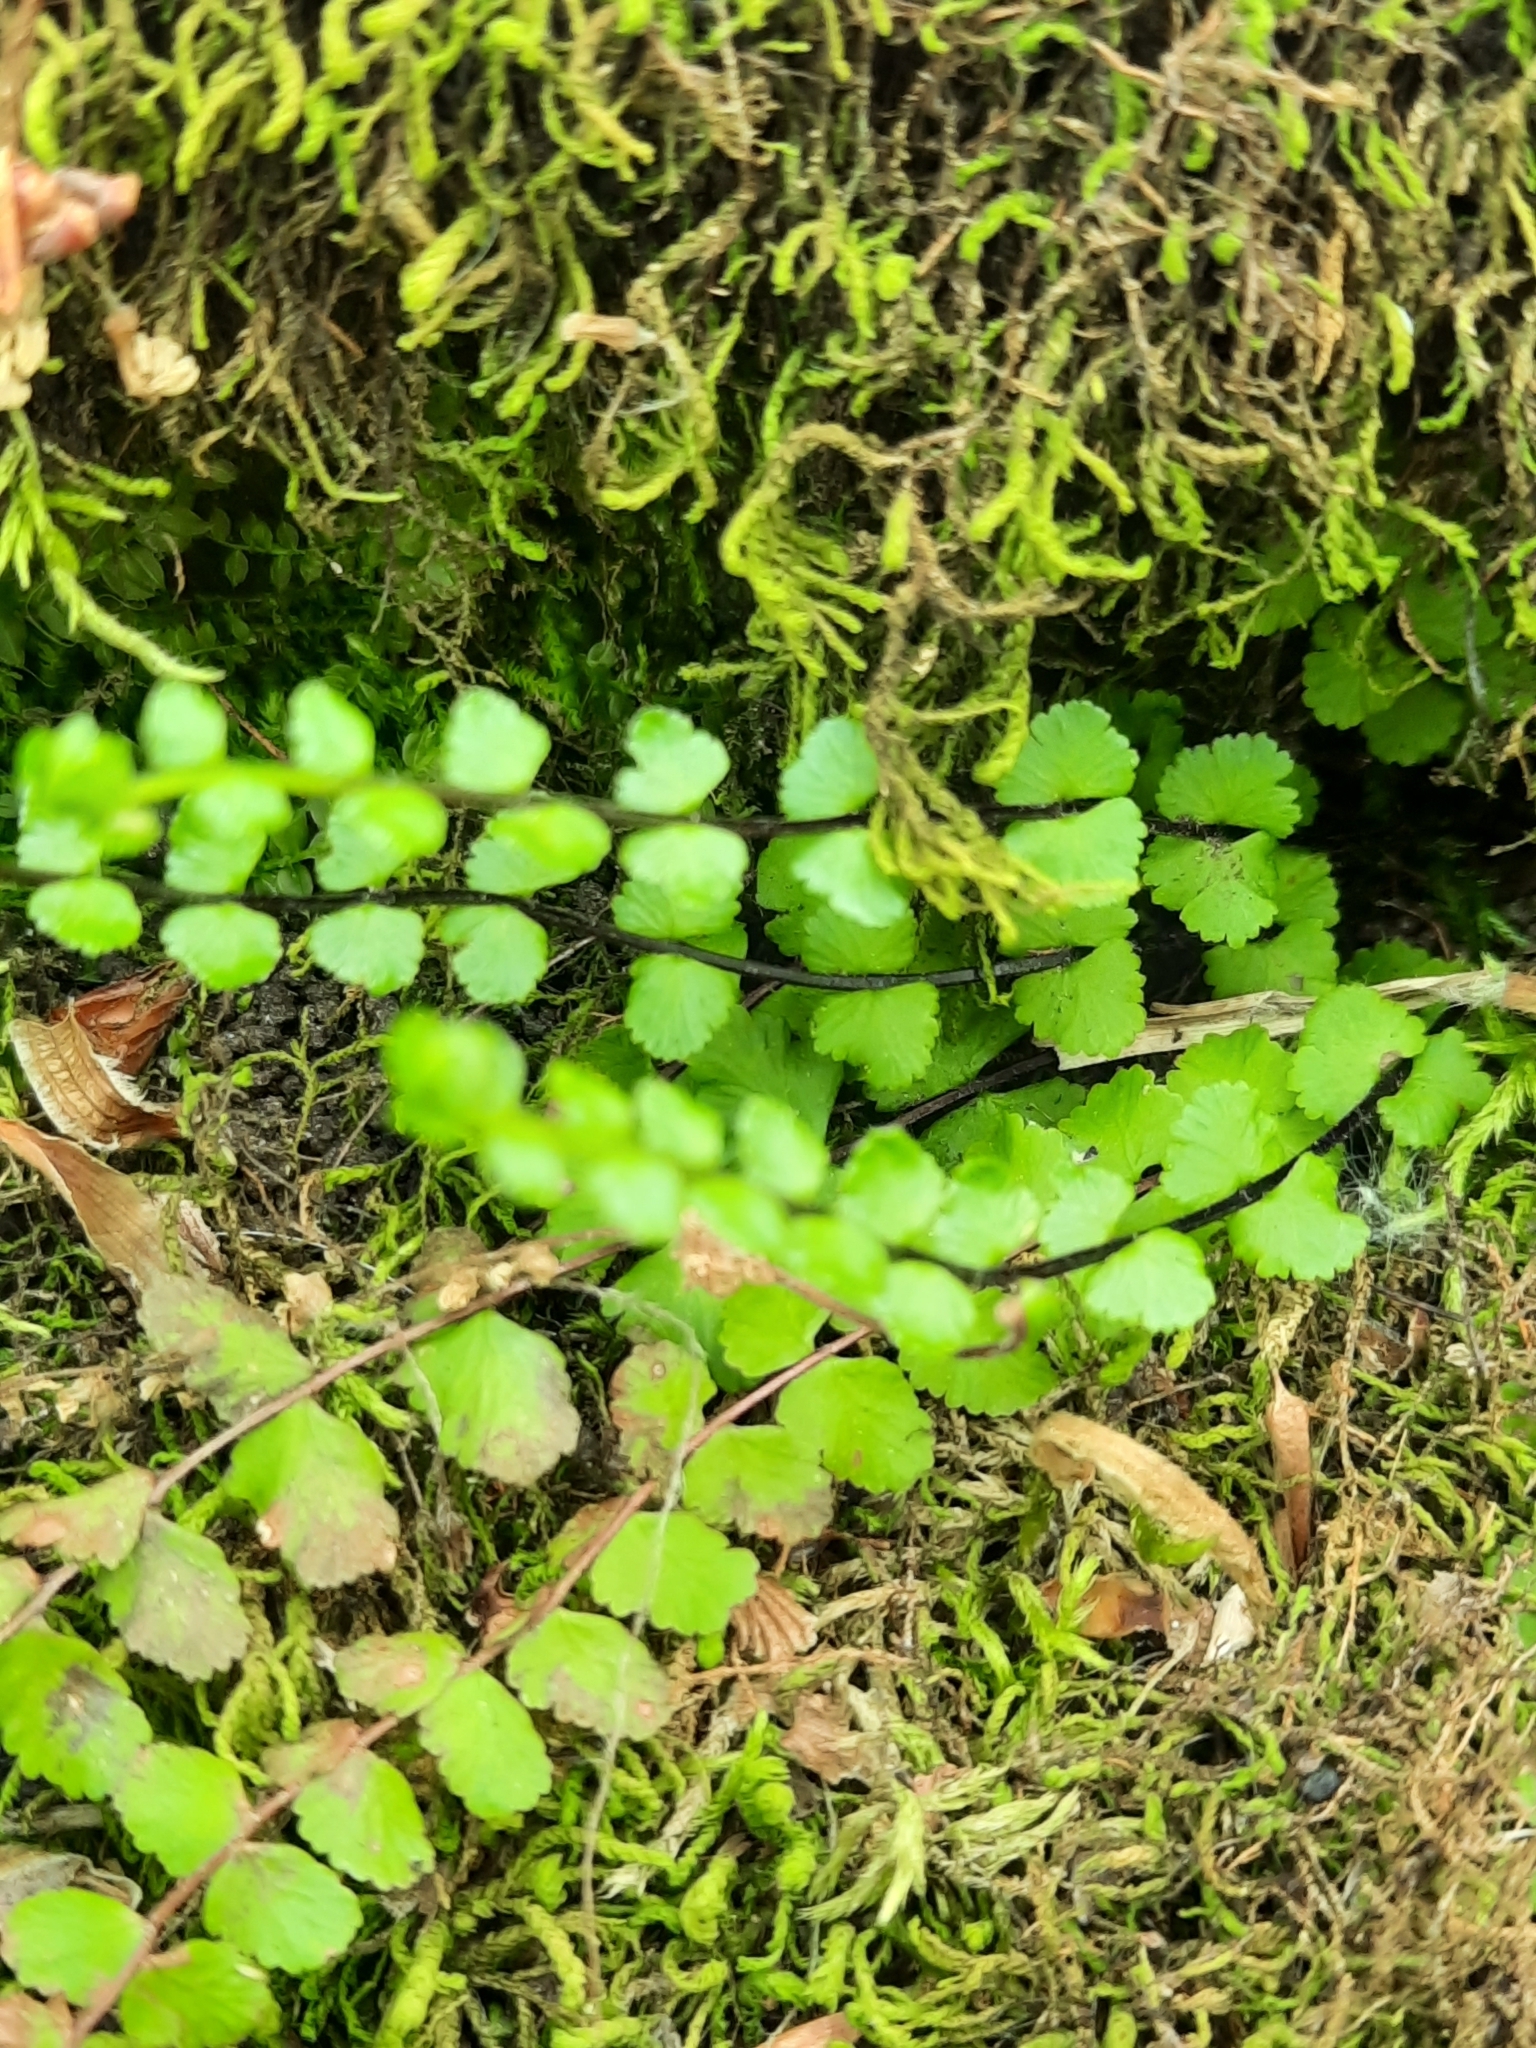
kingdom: Plantae
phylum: Tracheophyta
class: Polypodiopsida
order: Polypodiales
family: Aspleniaceae
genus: Asplenium
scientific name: Asplenium trichomanes
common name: Maidenhair spleenwort
